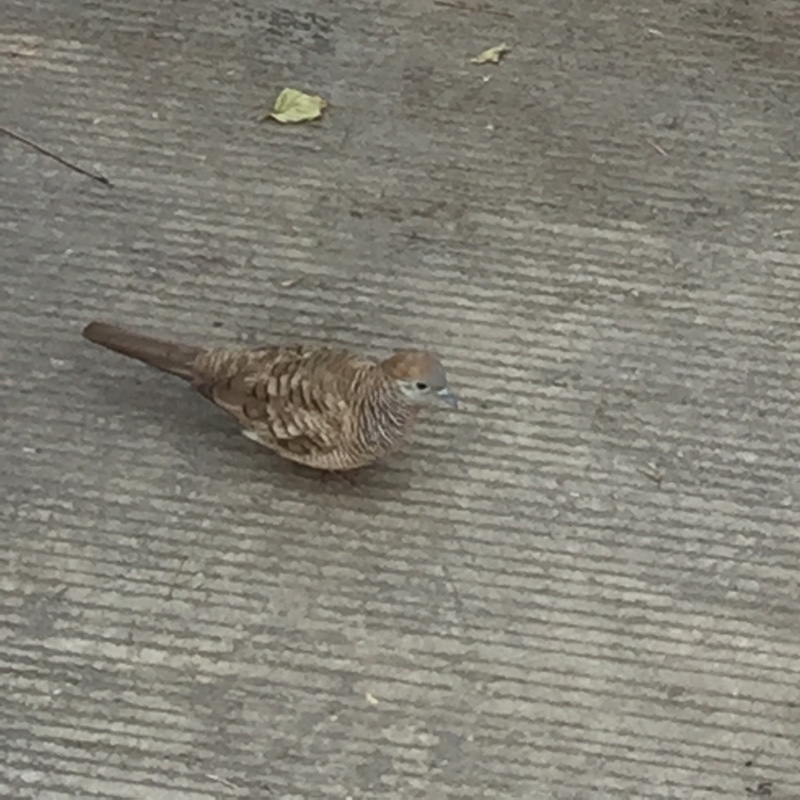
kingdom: Animalia
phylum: Chordata
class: Aves
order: Columbiformes
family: Columbidae
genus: Geopelia
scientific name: Geopelia striata
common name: Zebra dove
